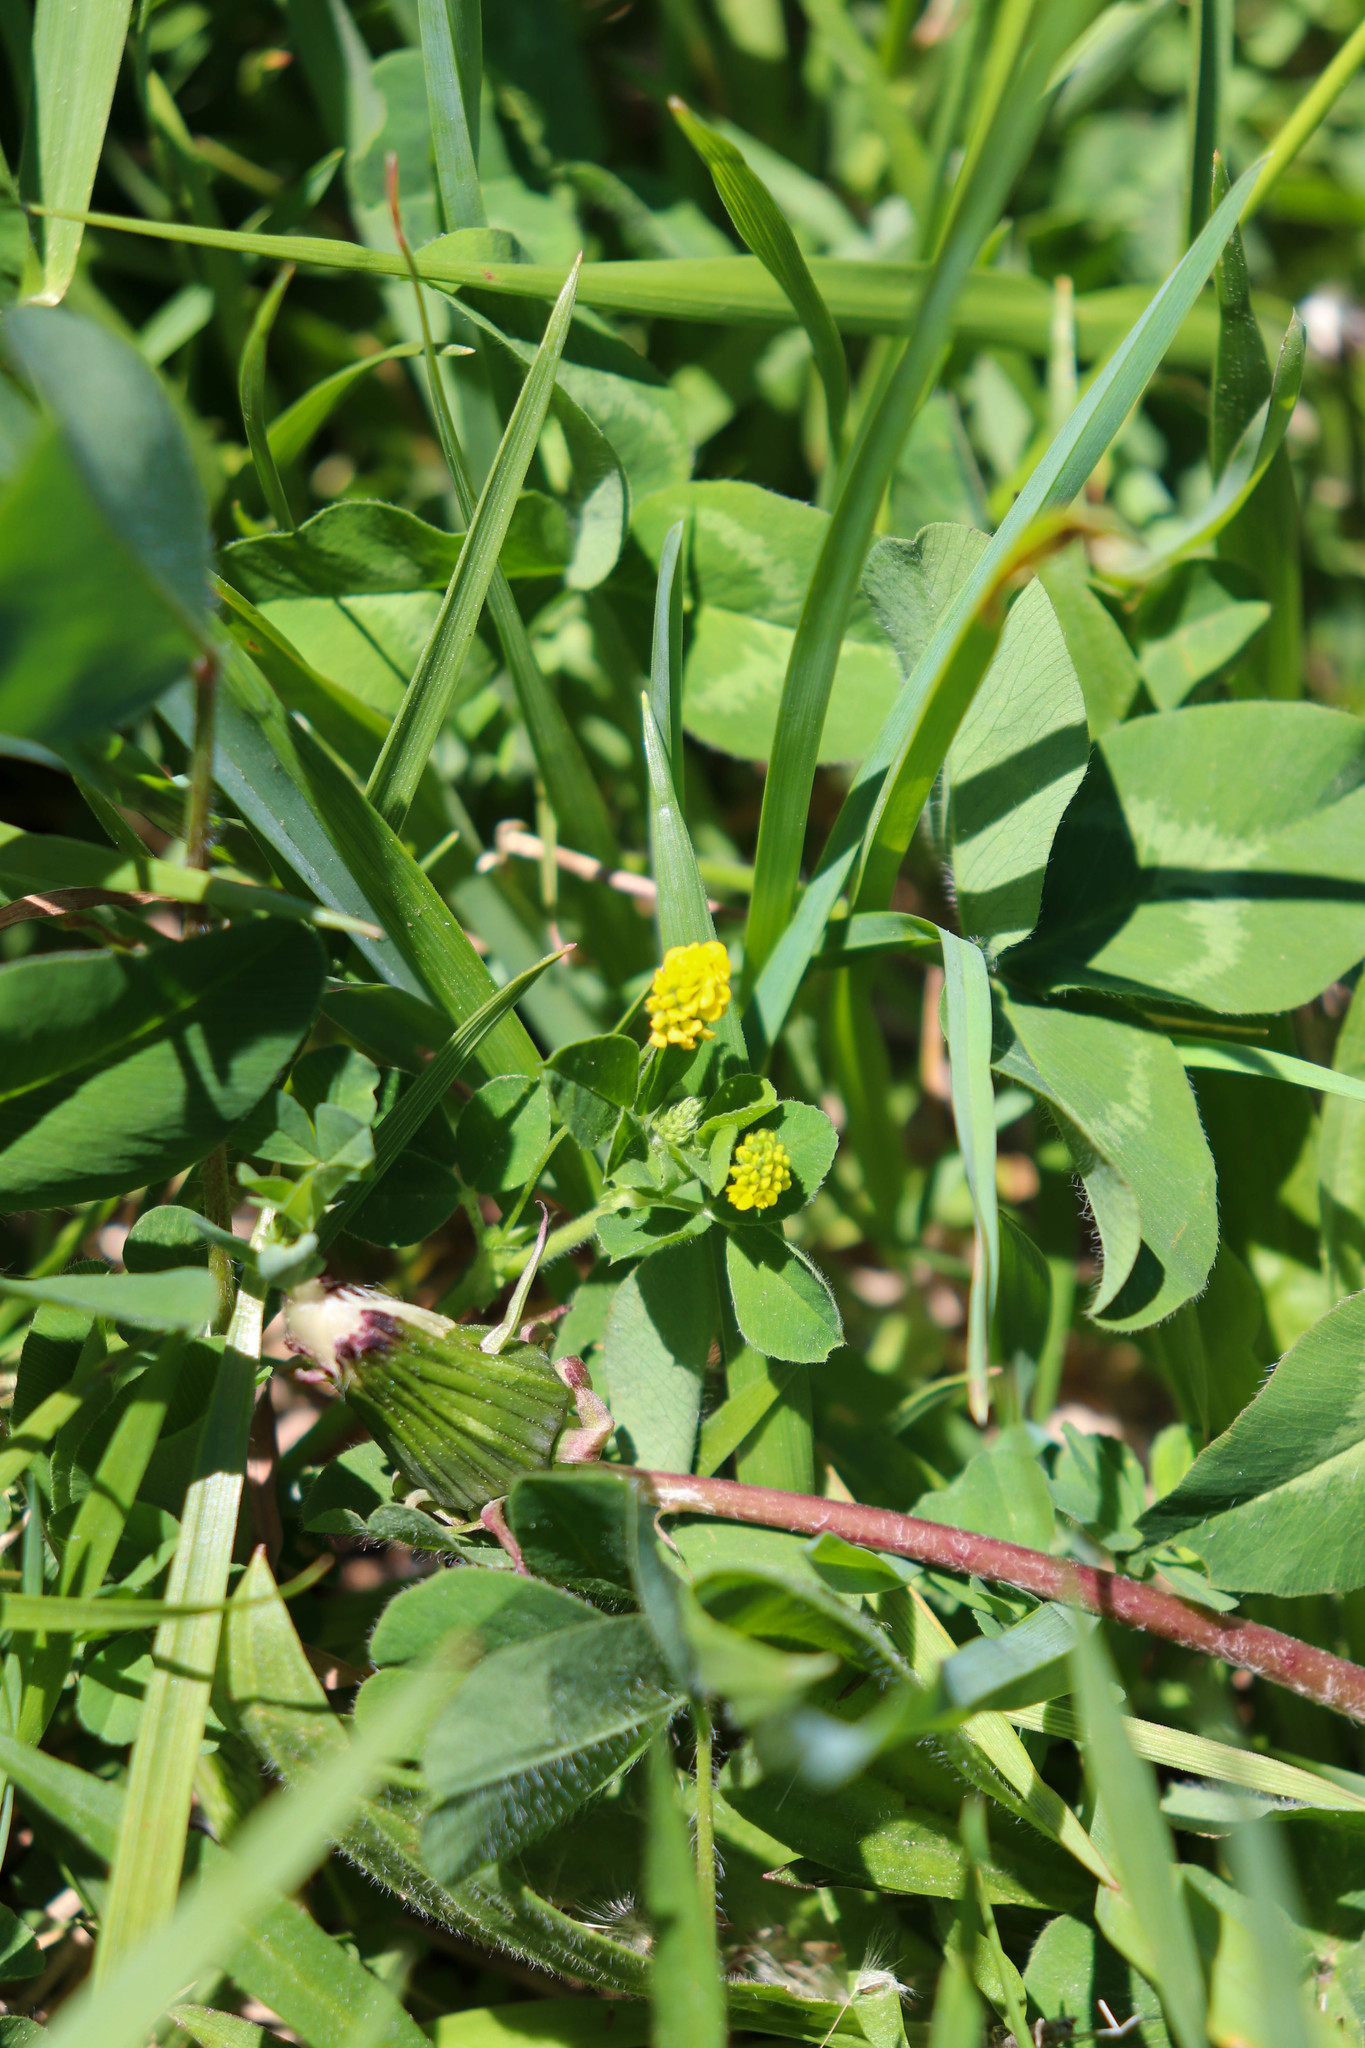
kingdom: Plantae
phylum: Tracheophyta
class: Magnoliopsida
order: Fabales
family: Fabaceae
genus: Medicago
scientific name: Medicago lupulina
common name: Black medick
